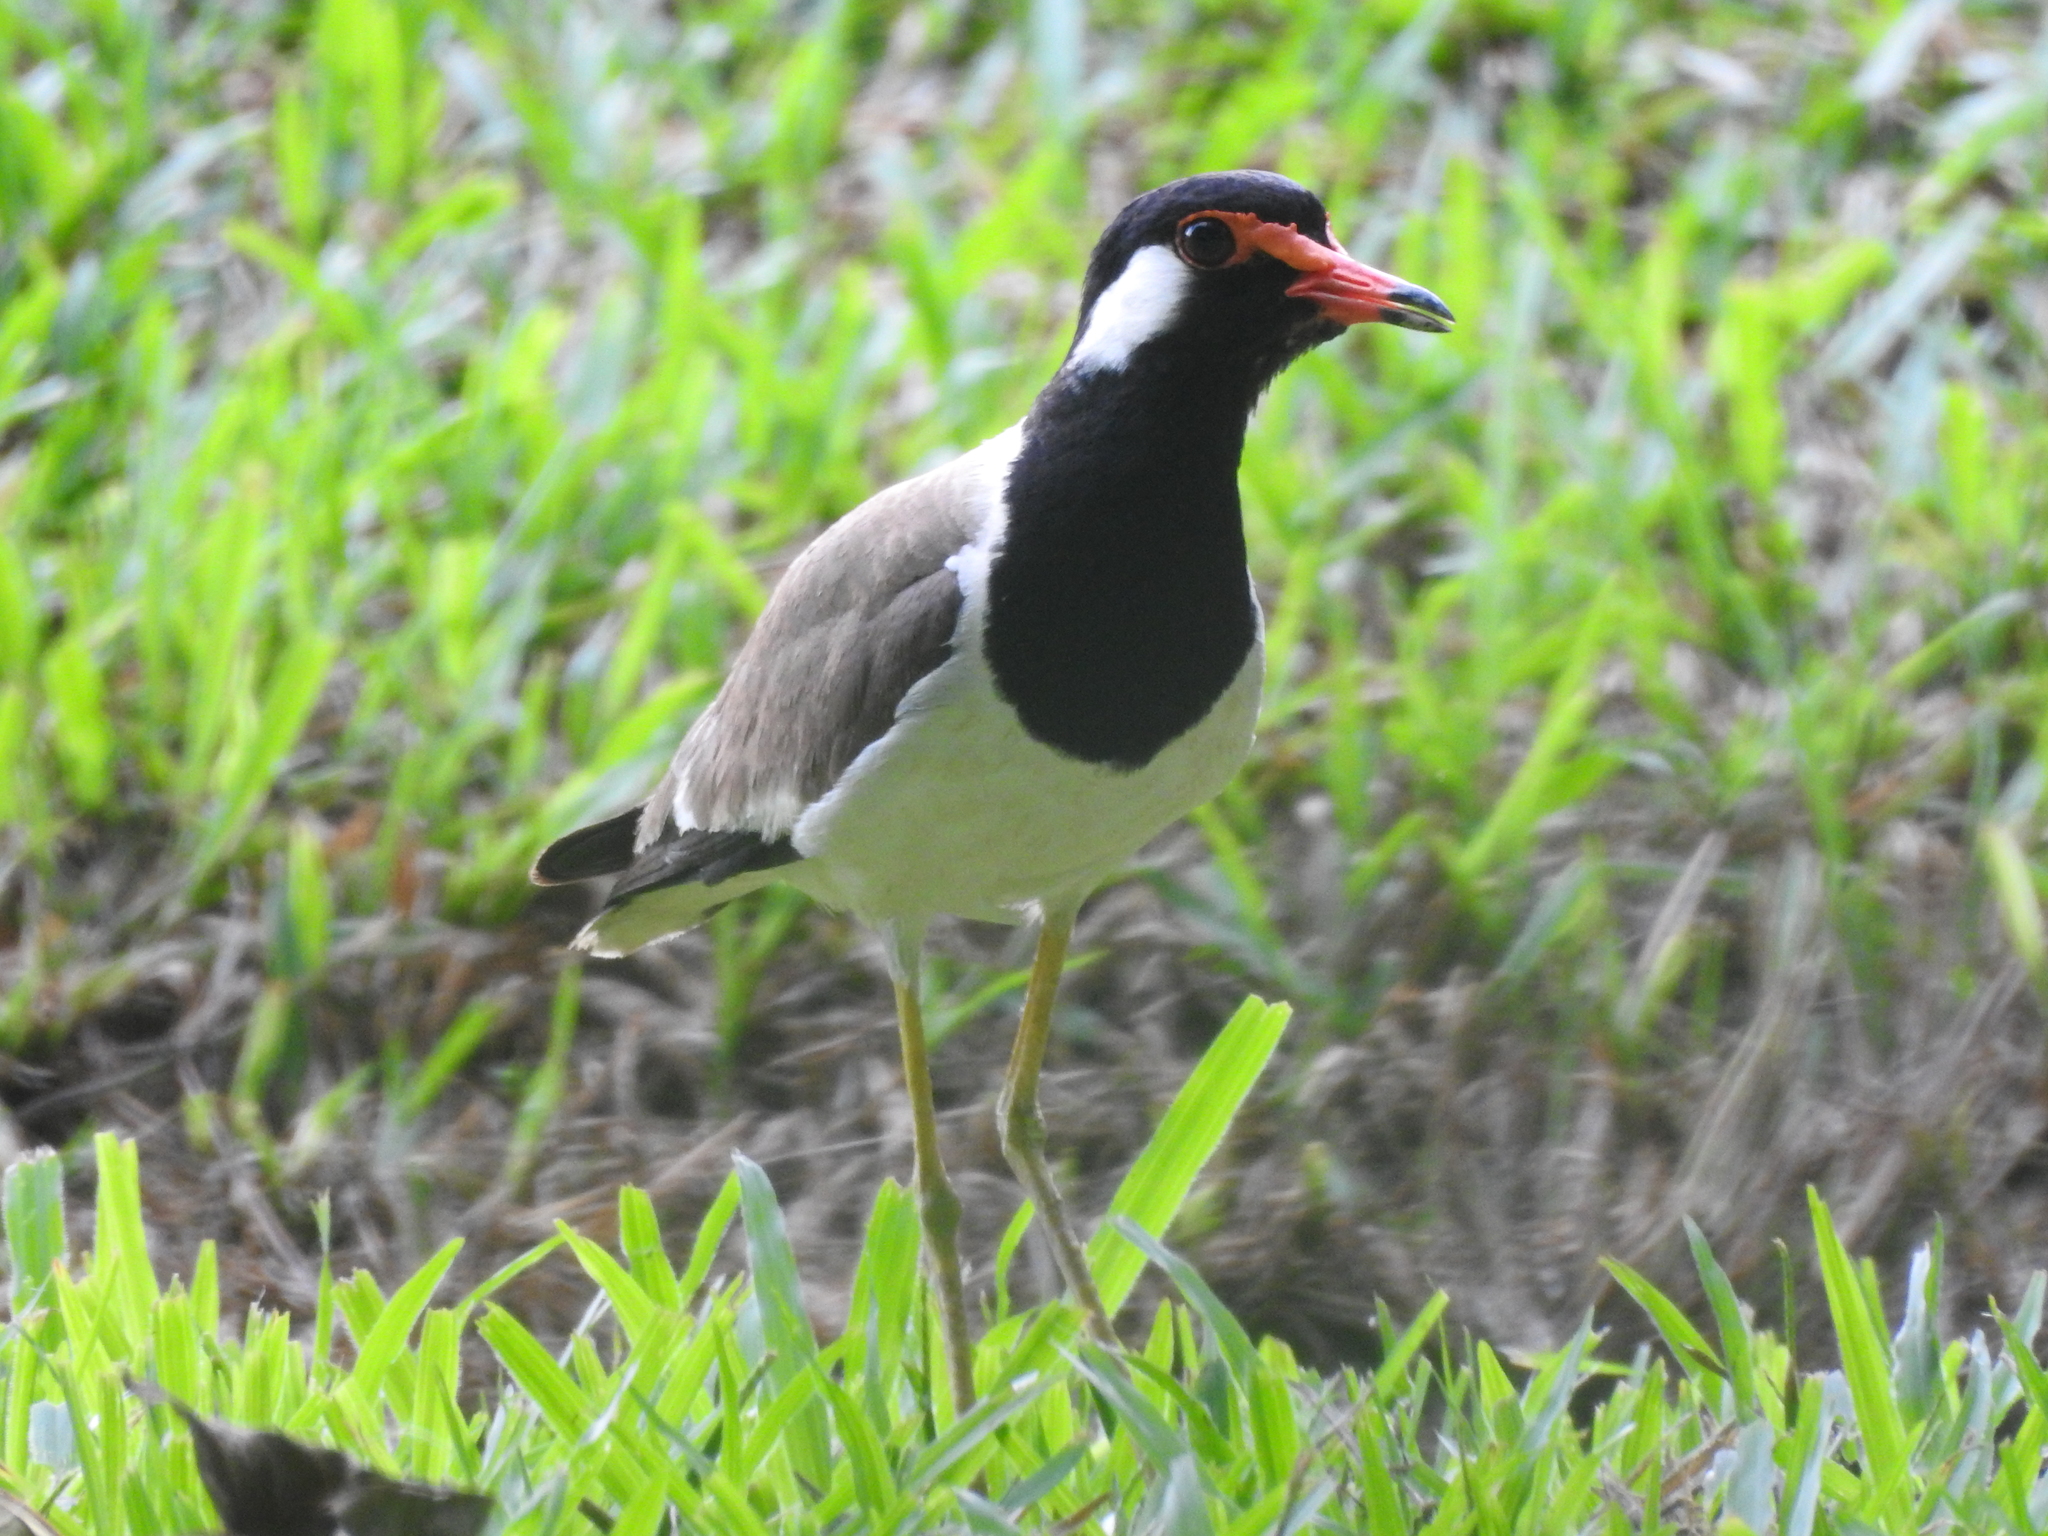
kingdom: Animalia
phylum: Chordata
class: Aves
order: Charadriiformes
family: Charadriidae
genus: Vanellus
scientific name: Vanellus indicus
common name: Red-wattled lapwing
